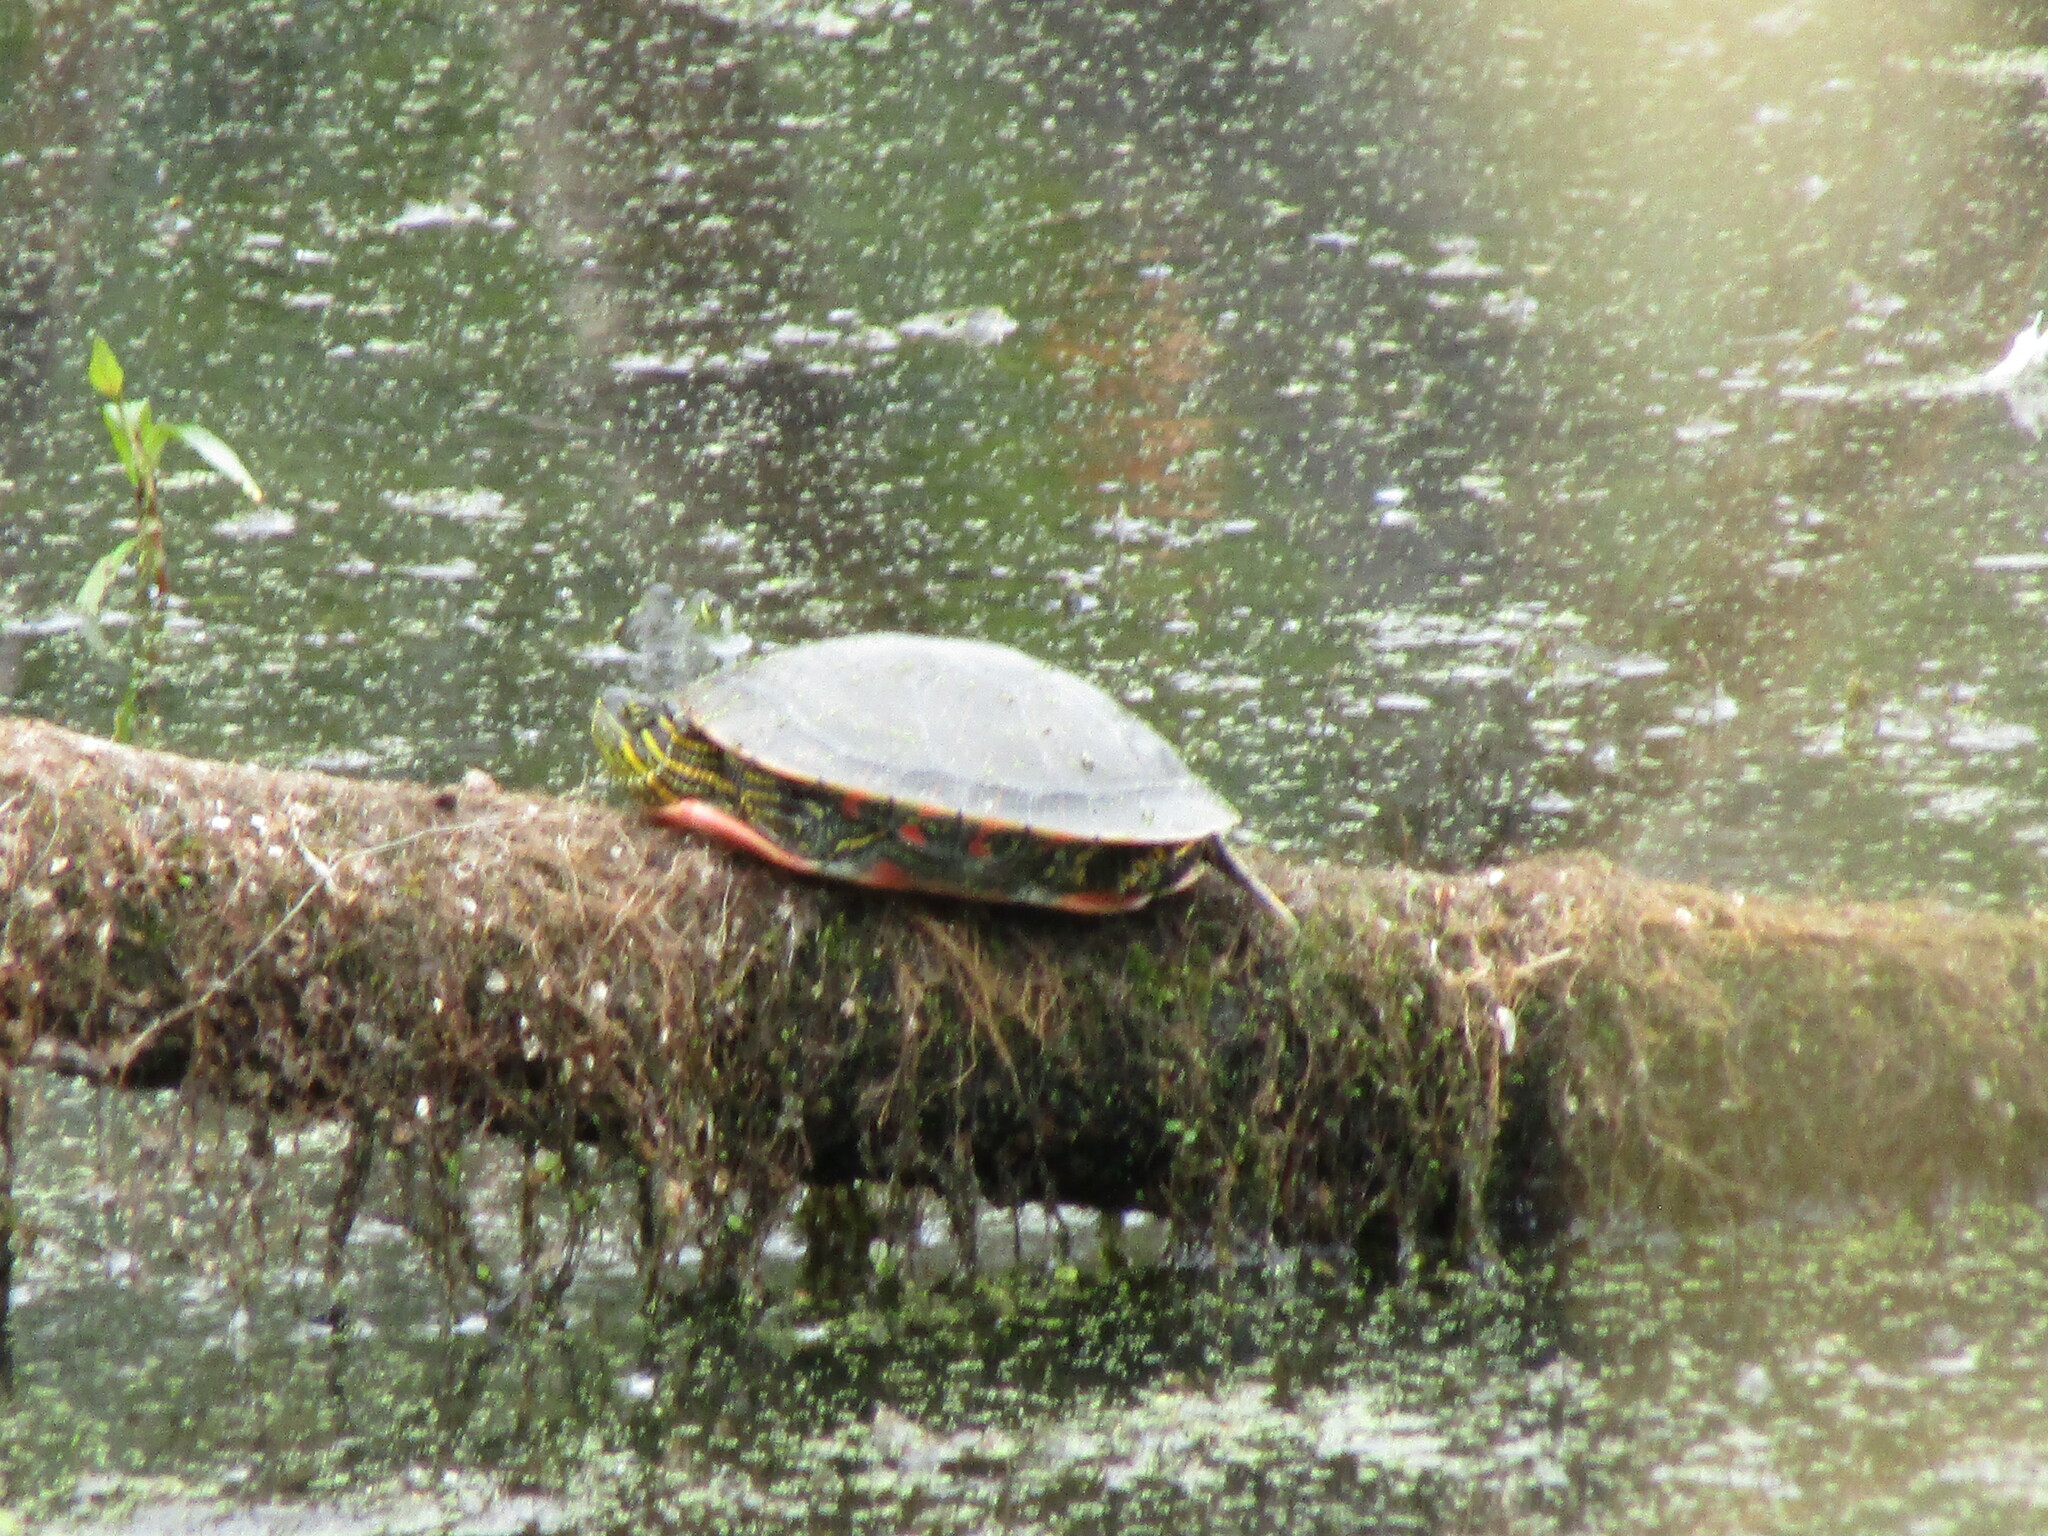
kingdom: Animalia
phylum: Chordata
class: Testudines
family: Emydidae
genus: Chrysemys
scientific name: Chrysemys picta
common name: Painted turtle
